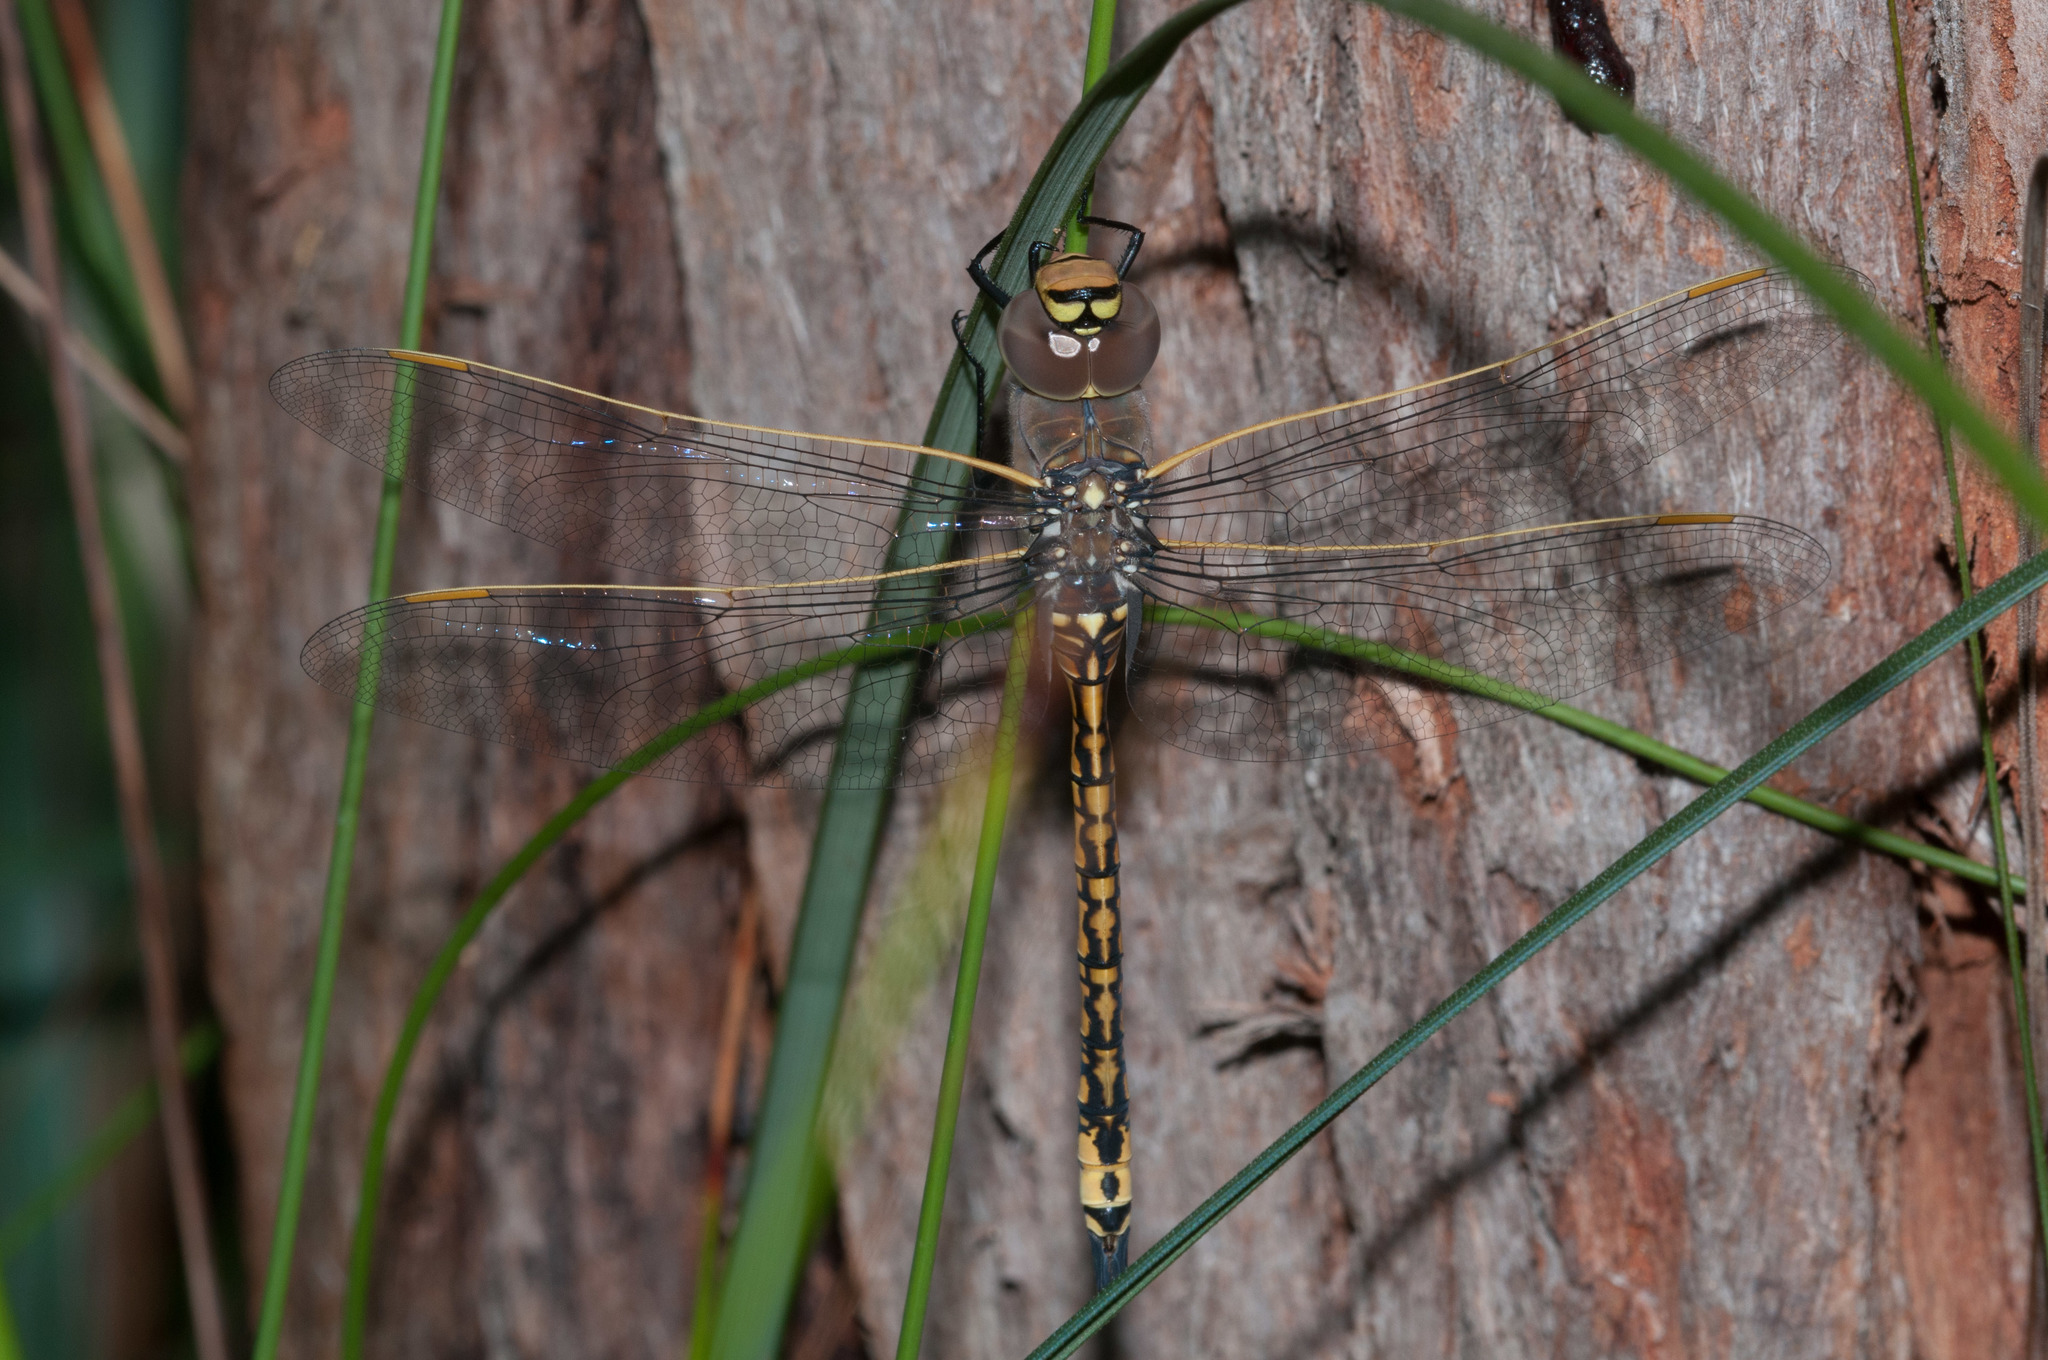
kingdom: Animalia
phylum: Arthropoda
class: Insecta
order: Odonata
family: Aeshnidae
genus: Anax
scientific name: Anax papuensis
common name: Australian emperor
